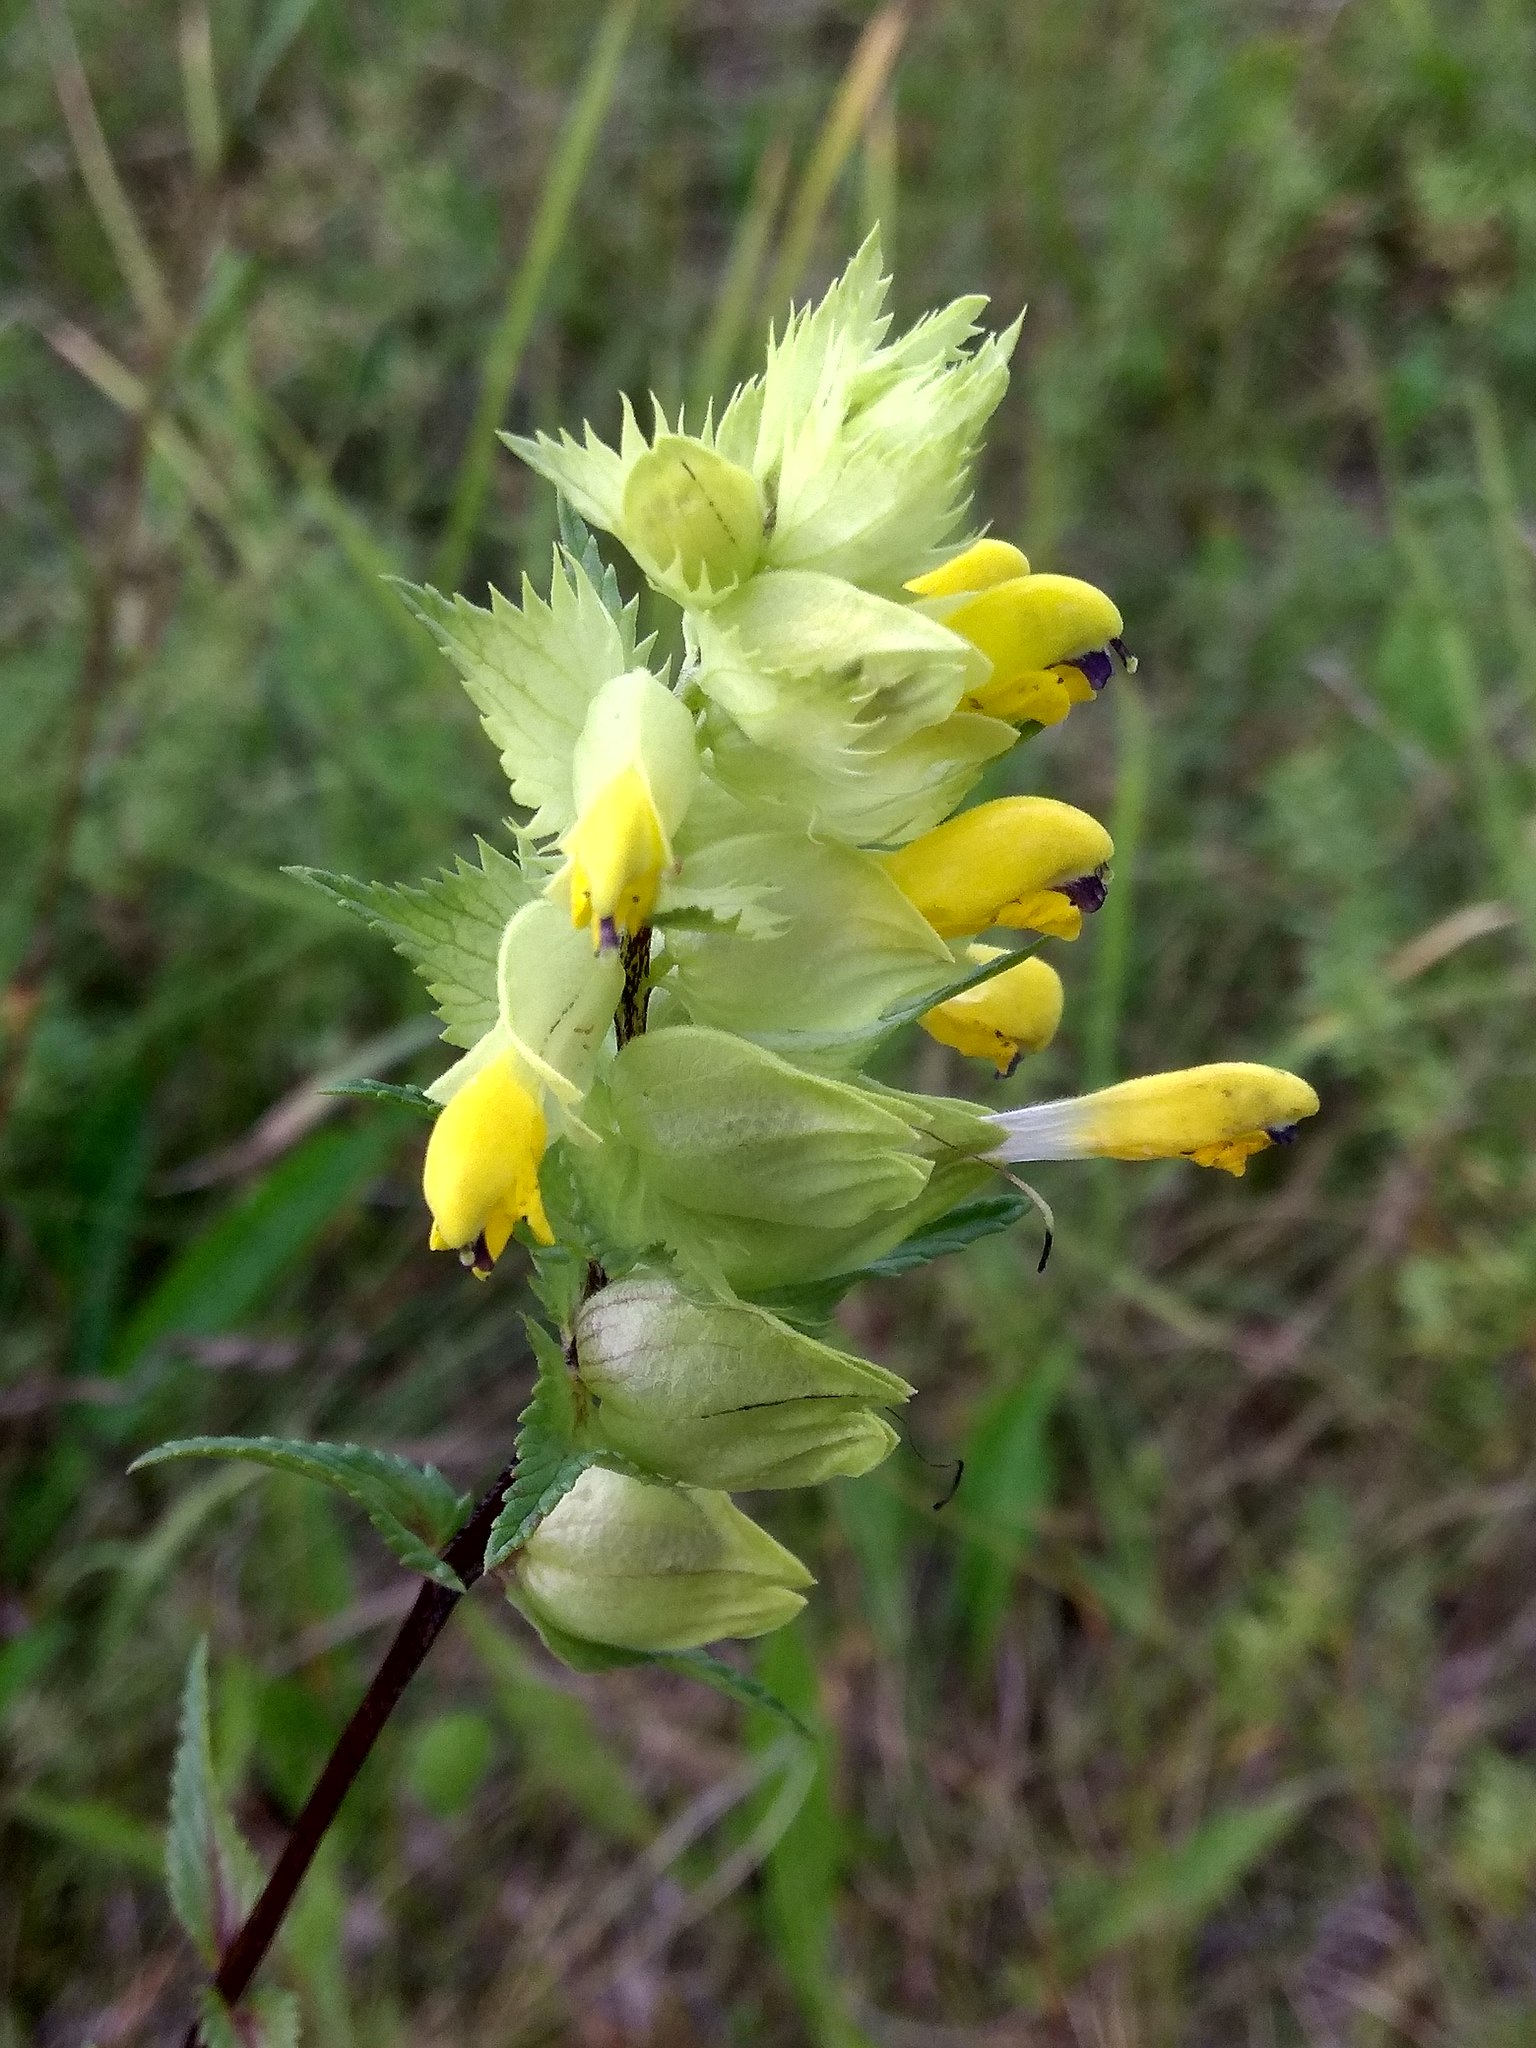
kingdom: Plantae
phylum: Tracheophyta
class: Magnoliopsida
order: Lamiales
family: Orobanchaceae
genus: Rhinanthus
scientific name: Rhinanthus serotinus
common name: Late-flowering yellow rattle
